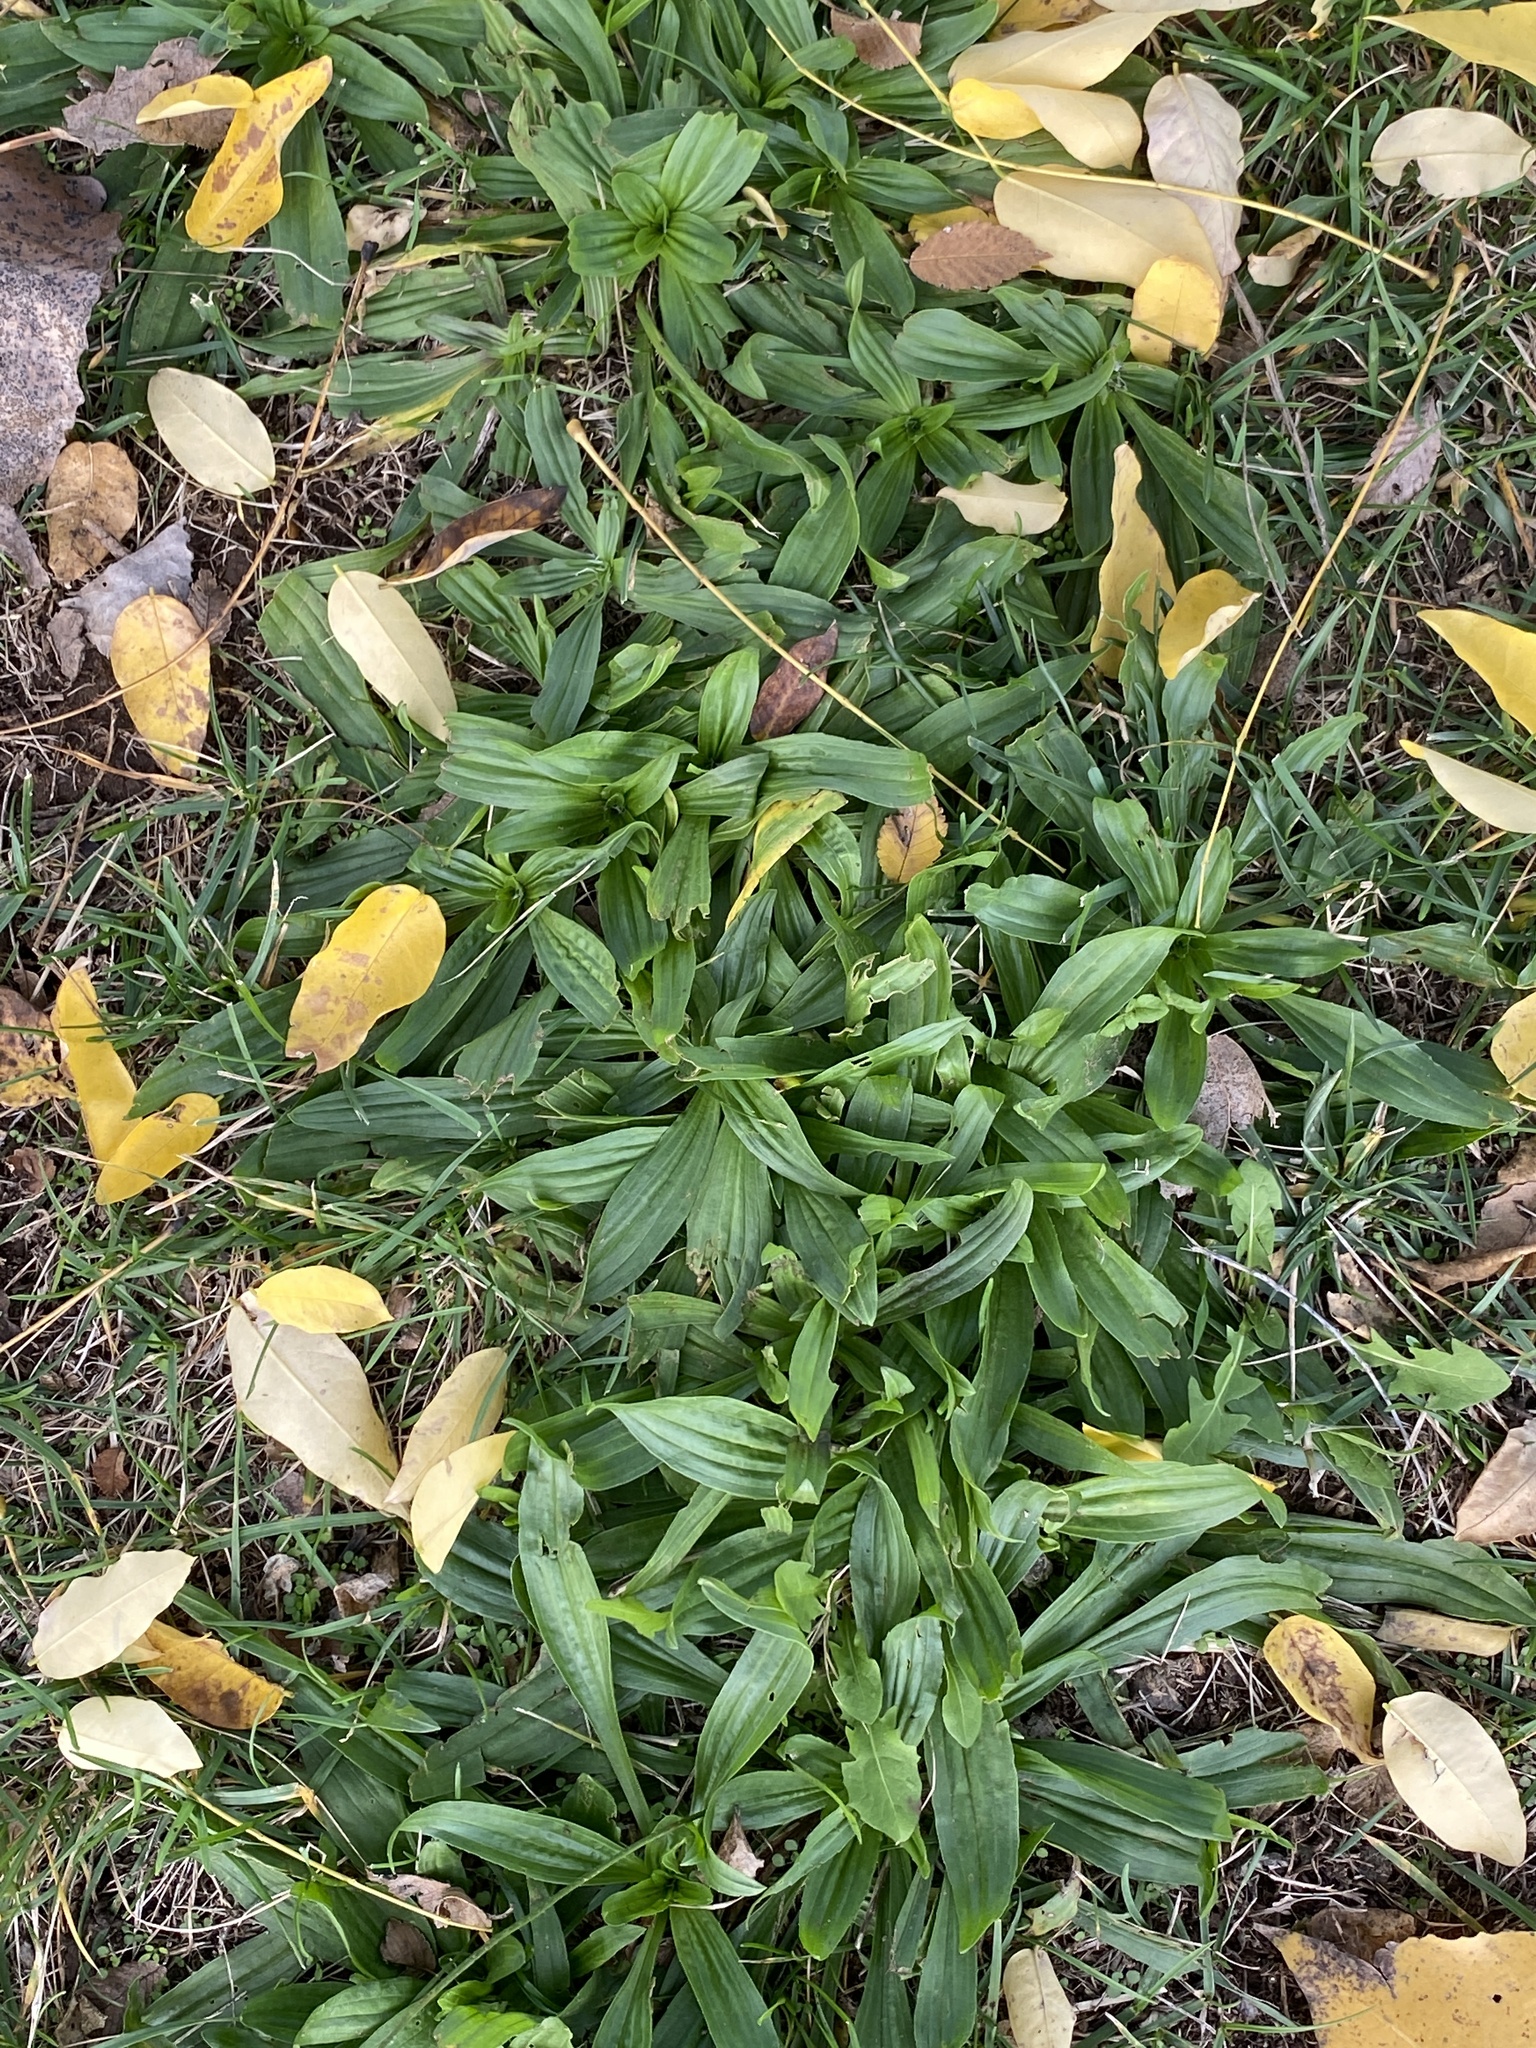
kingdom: Plantae
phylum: Tracheophyta
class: Magnoliopsida
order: Lamiales
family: Plantaginaceae
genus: Plantago
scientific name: Plantago lanceolata
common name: Ribwort plantain
